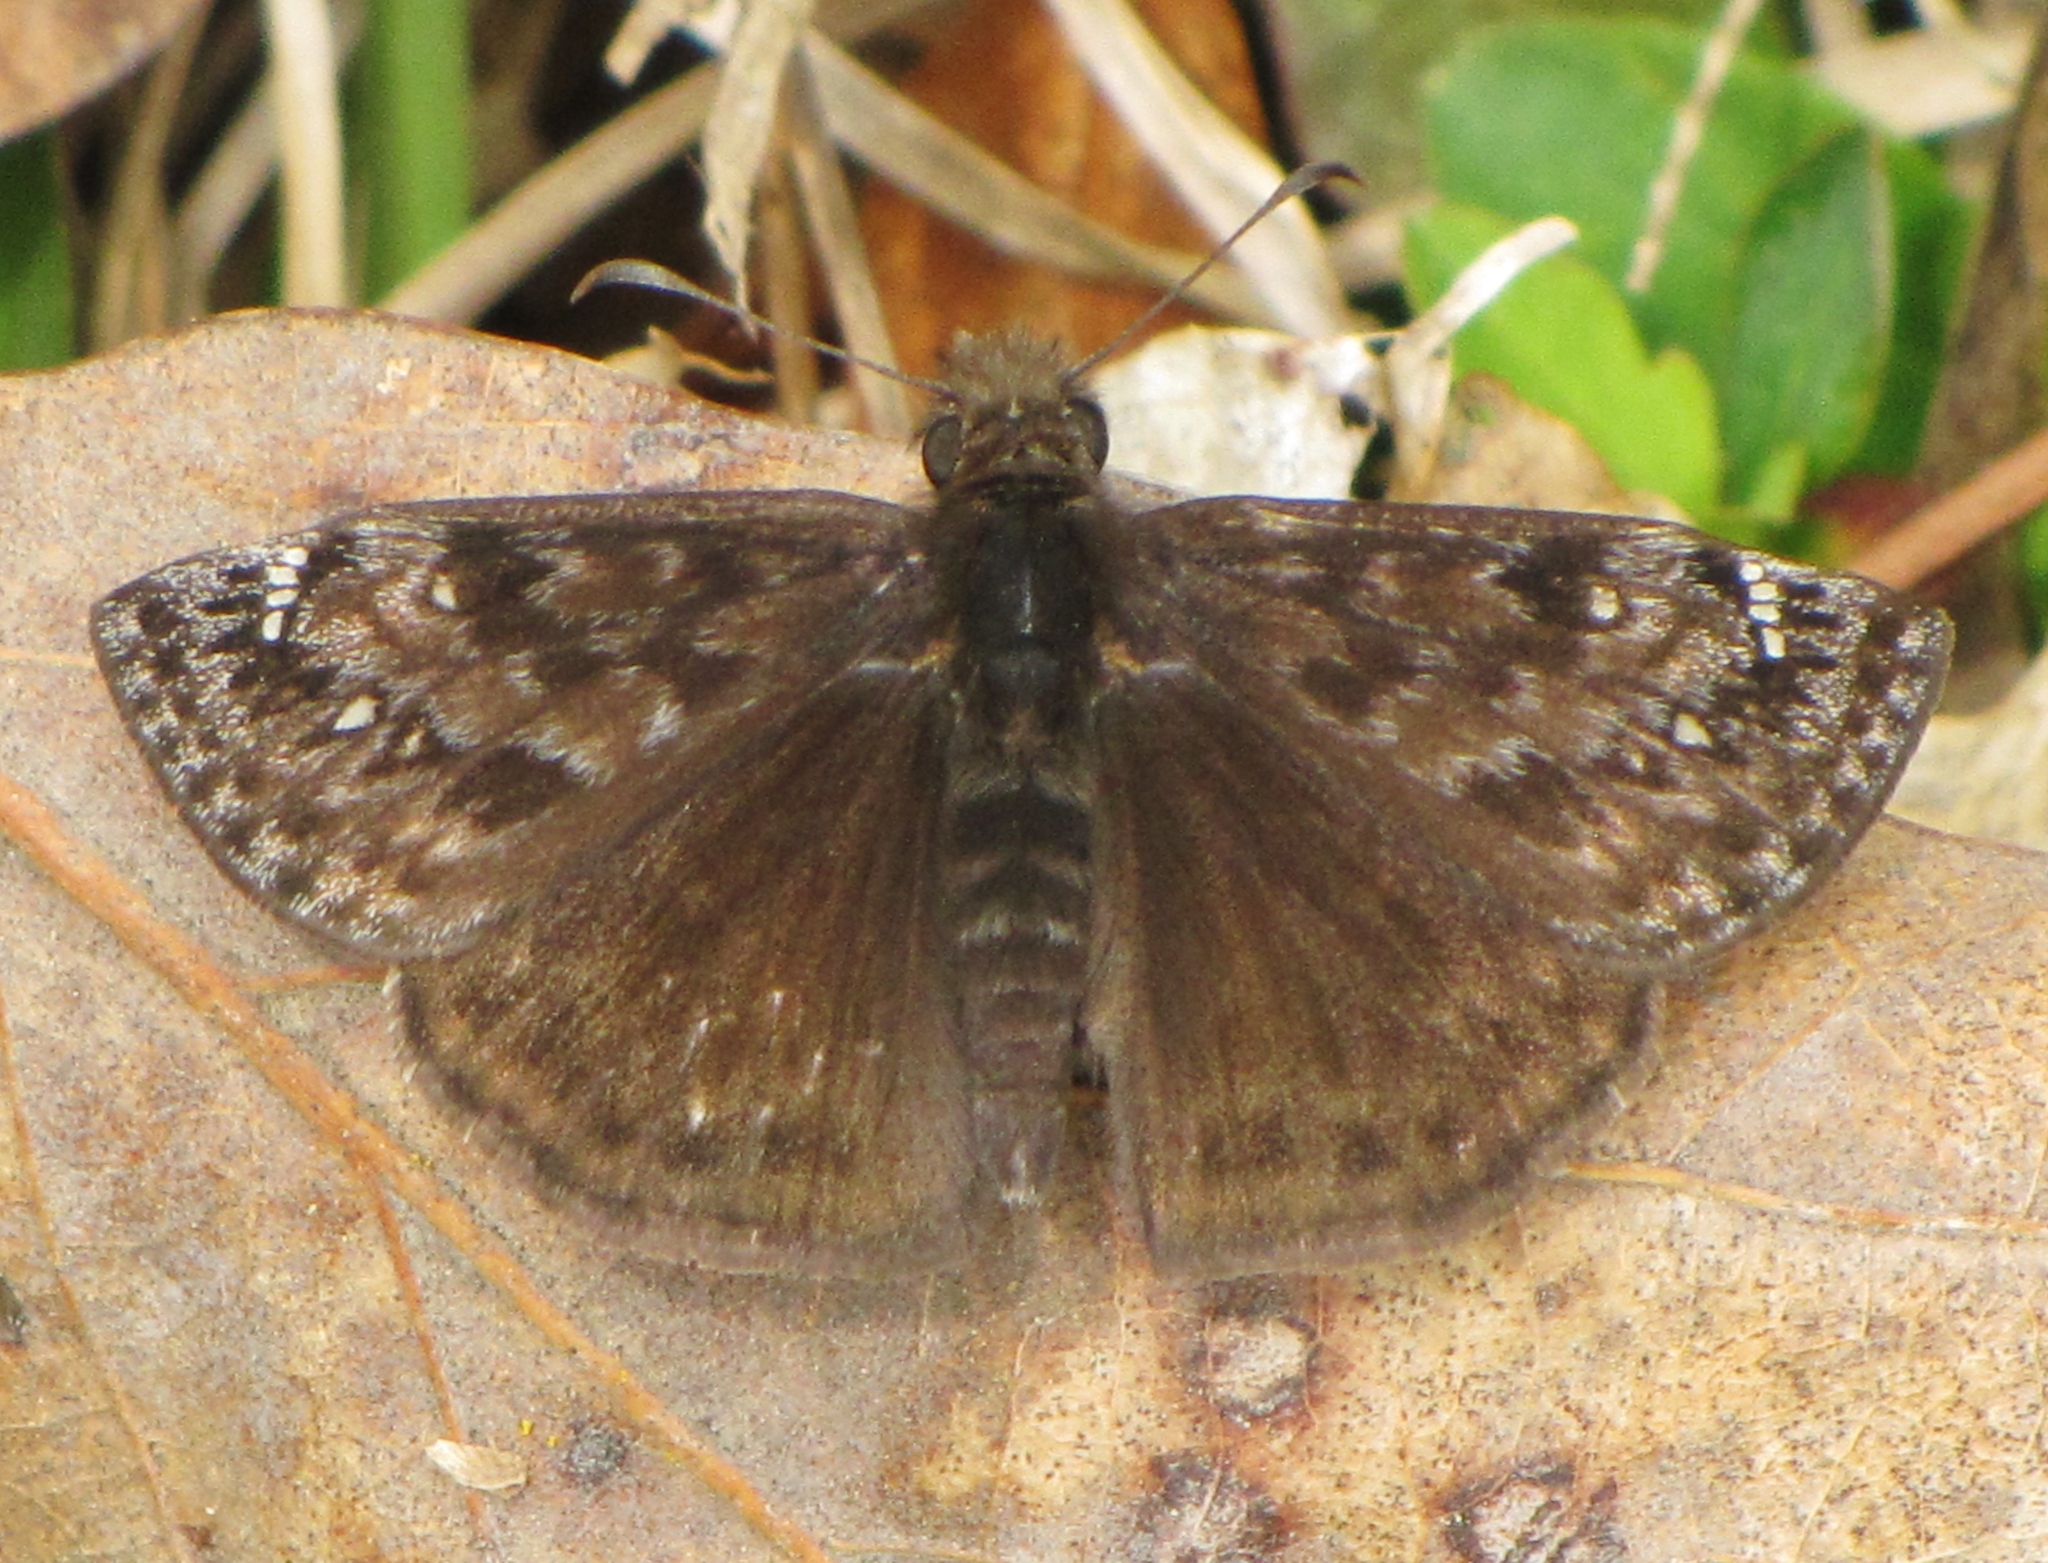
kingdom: Animalia
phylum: Arthropoda
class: Insecta
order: Lepidoptera
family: Hesperiidae
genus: Erynnis
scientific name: Erynnis juvenalis
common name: Juvenal's duskywing
